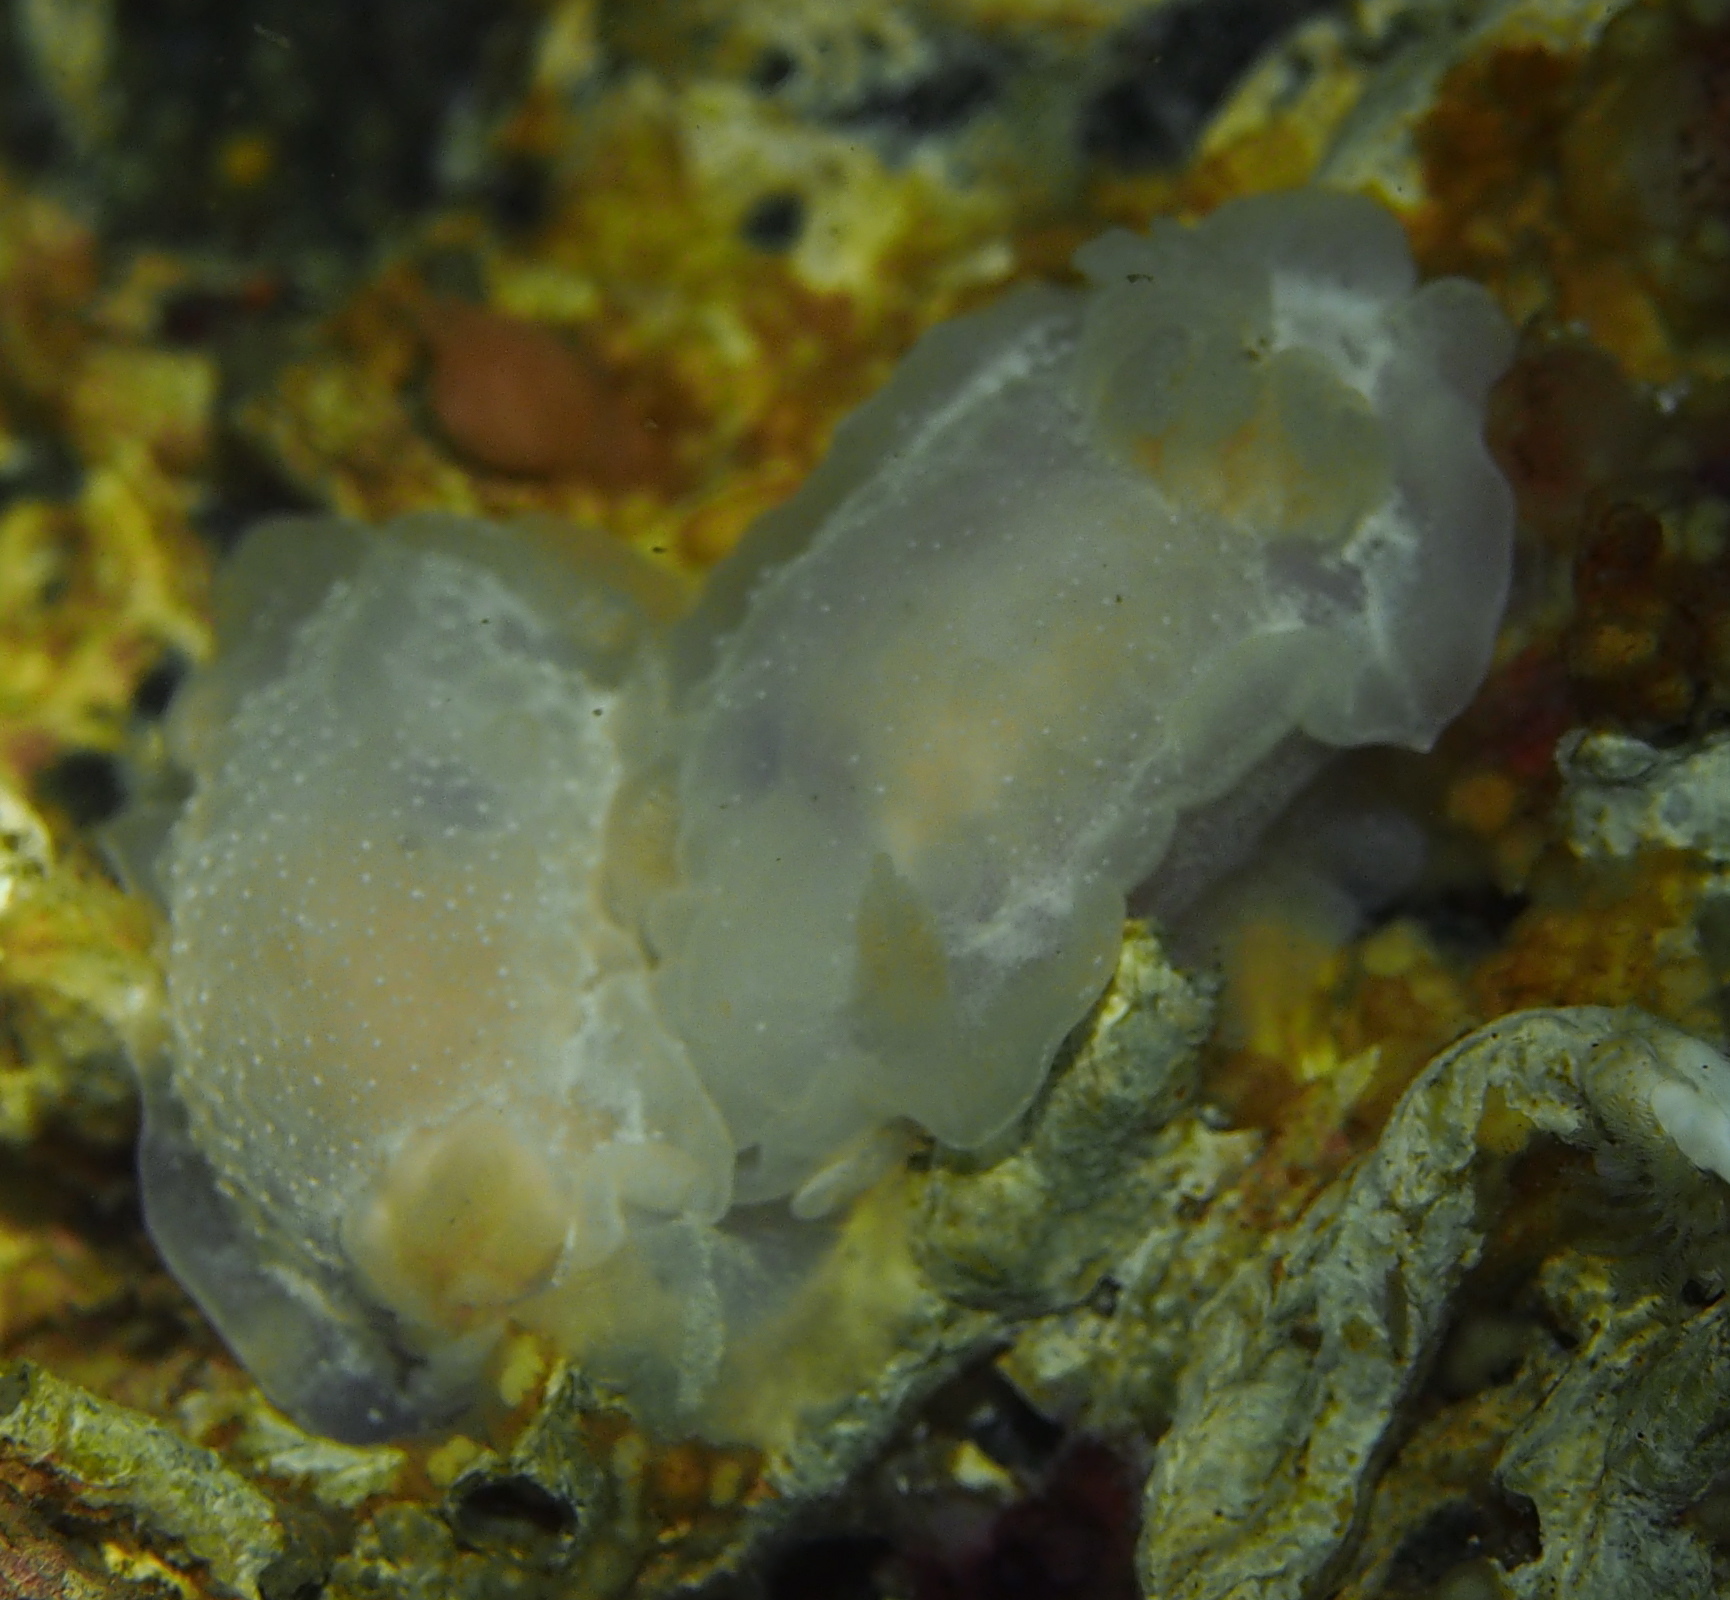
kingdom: Animalia
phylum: Mollusca
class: Gastropoda
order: Nudibranchia
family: Goniodorididae
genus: Okenia
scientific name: Okenia
